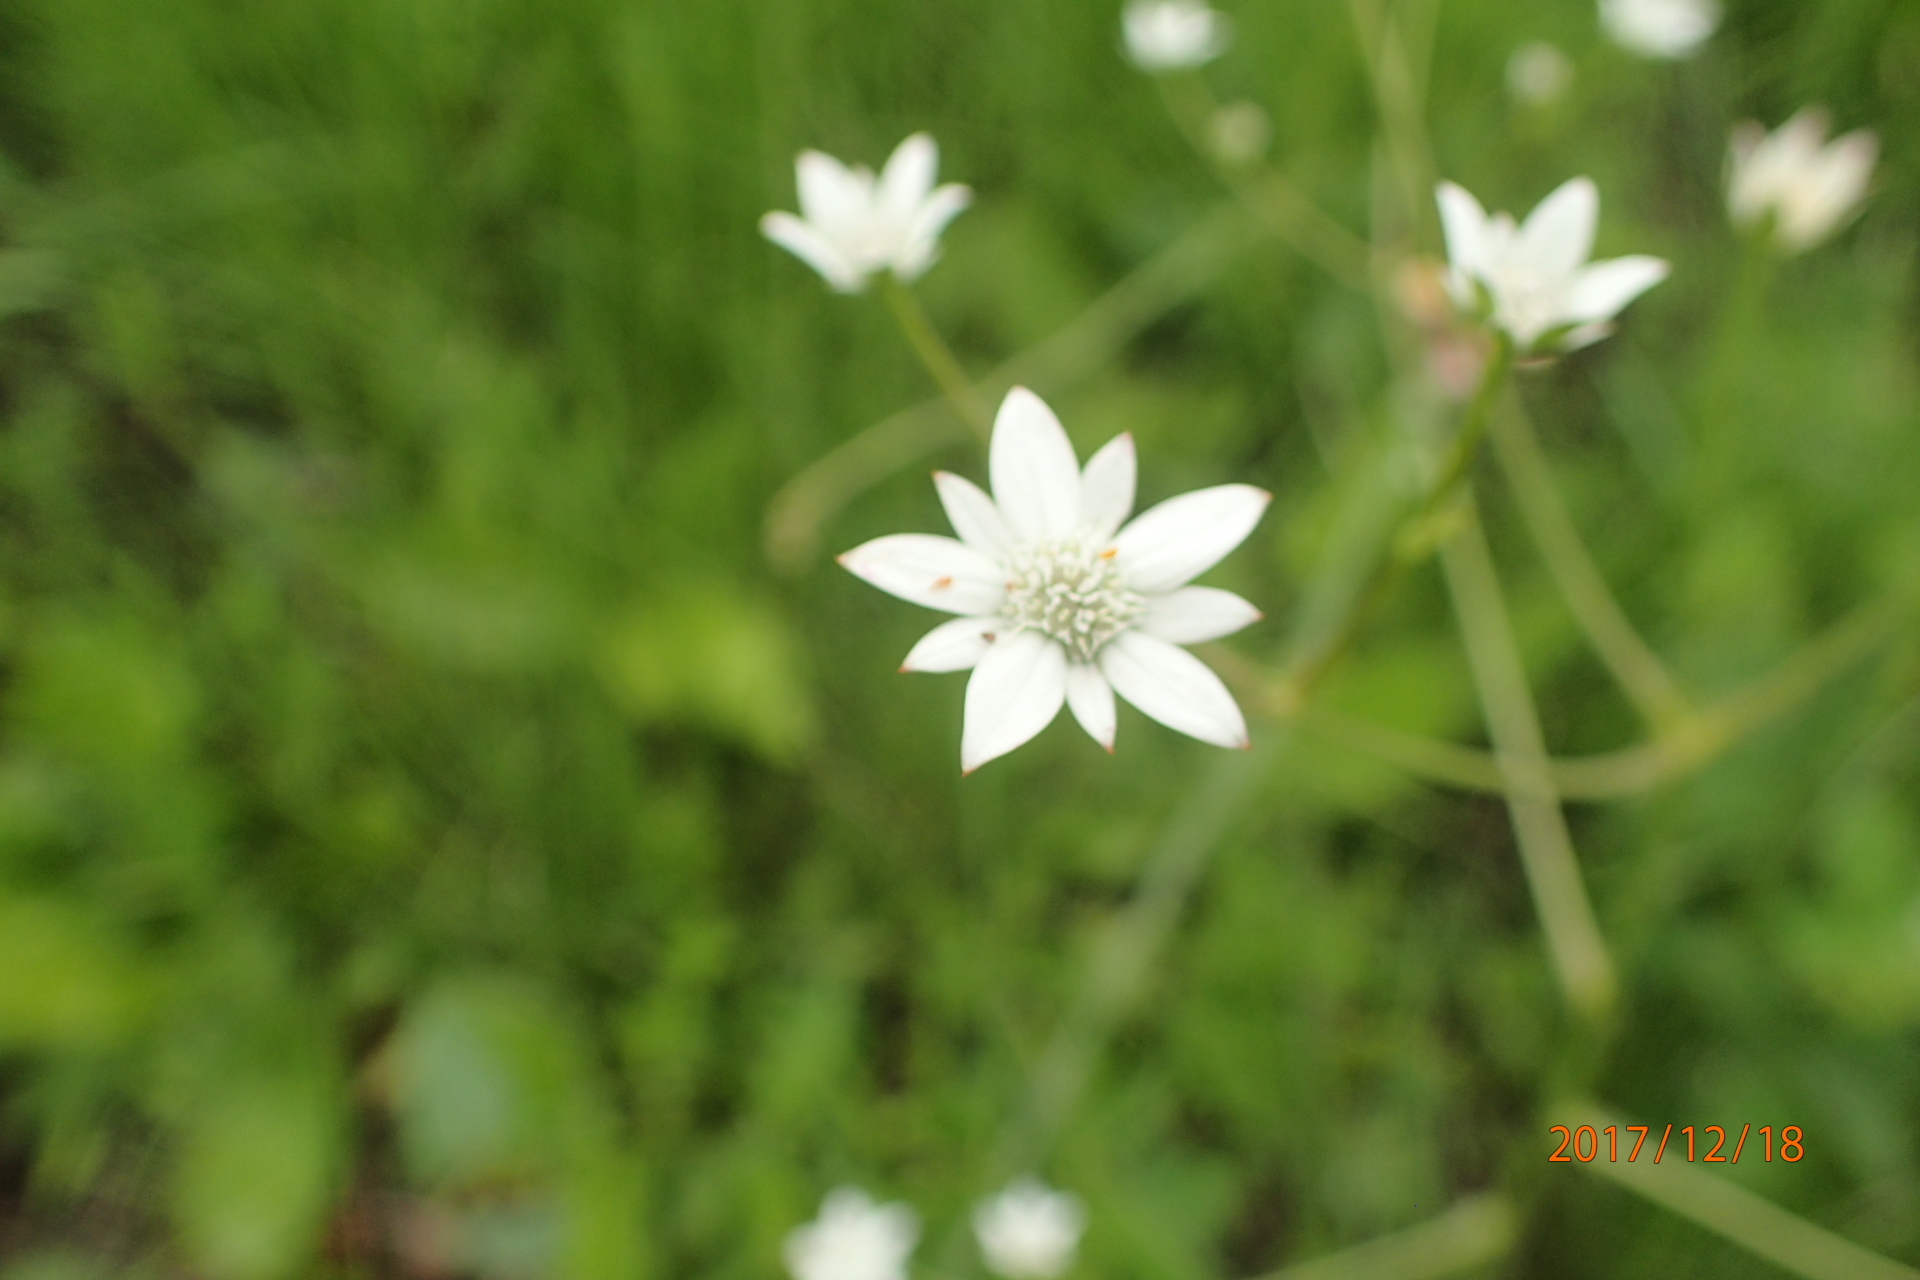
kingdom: Plantae
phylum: Tracheophyta
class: Magnoliopsida
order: Apiales
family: Apiaceae
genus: Alepidea
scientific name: Alepidea peduncularis
